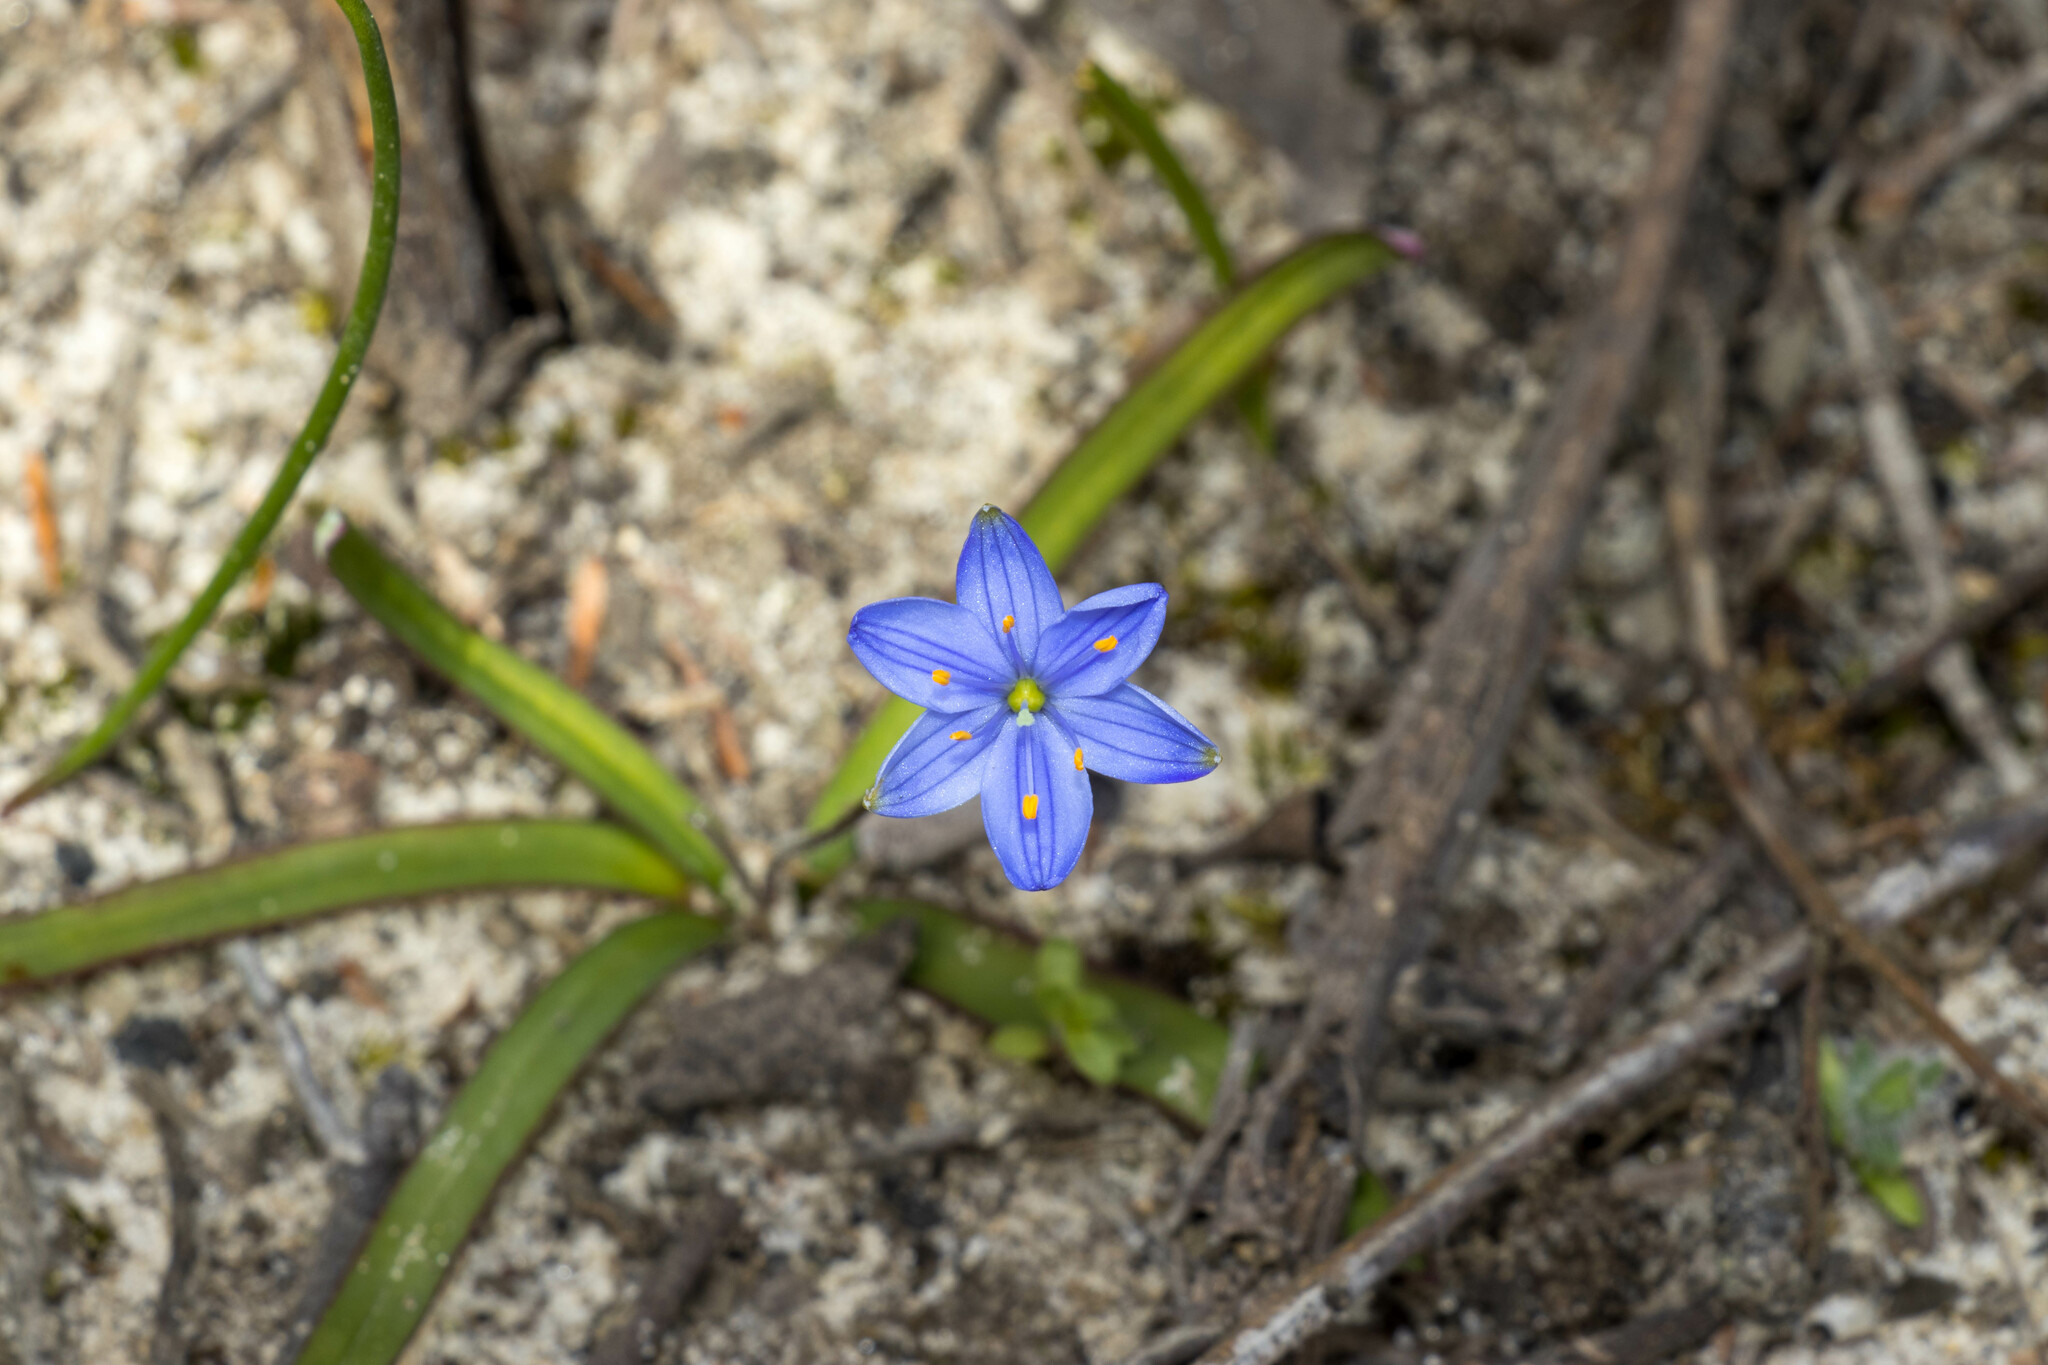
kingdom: Plantae
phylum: Tracheophyta
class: Liliopsida
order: Asparagales
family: Asphodelaceae
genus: Chamaescilla
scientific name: Chamaescilla corymbosa
